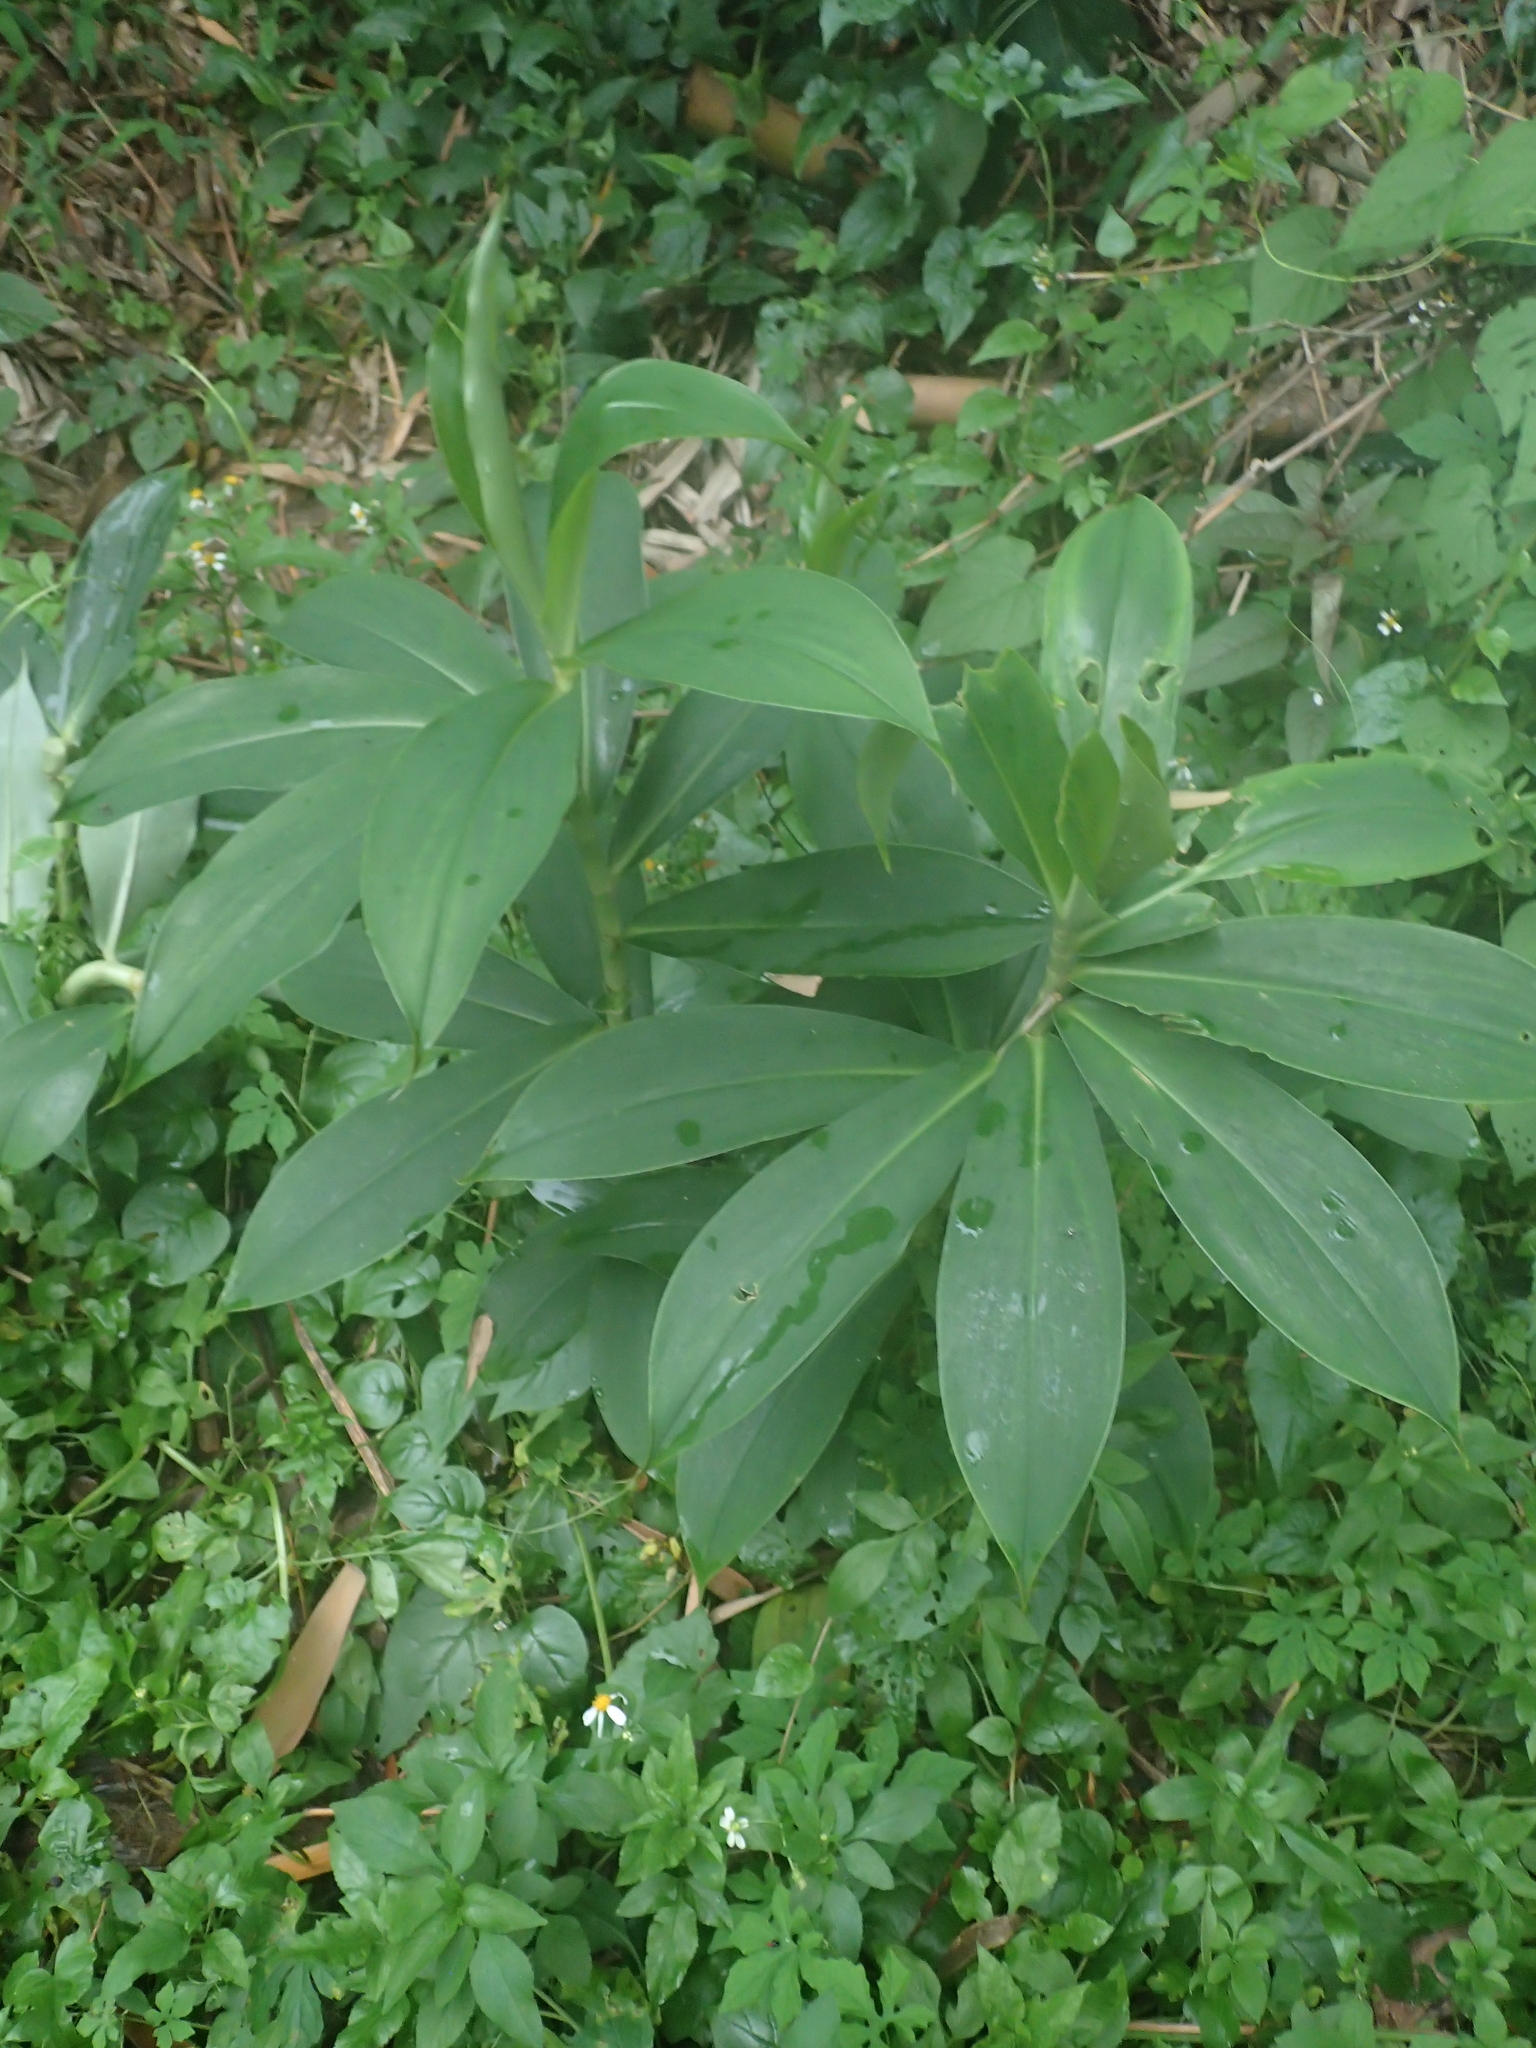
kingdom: Plantae
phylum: Tracheophyta
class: Liliopsida
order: Zingiberales
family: Costaceae
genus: Hellenia
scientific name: Hellenia speciosa
